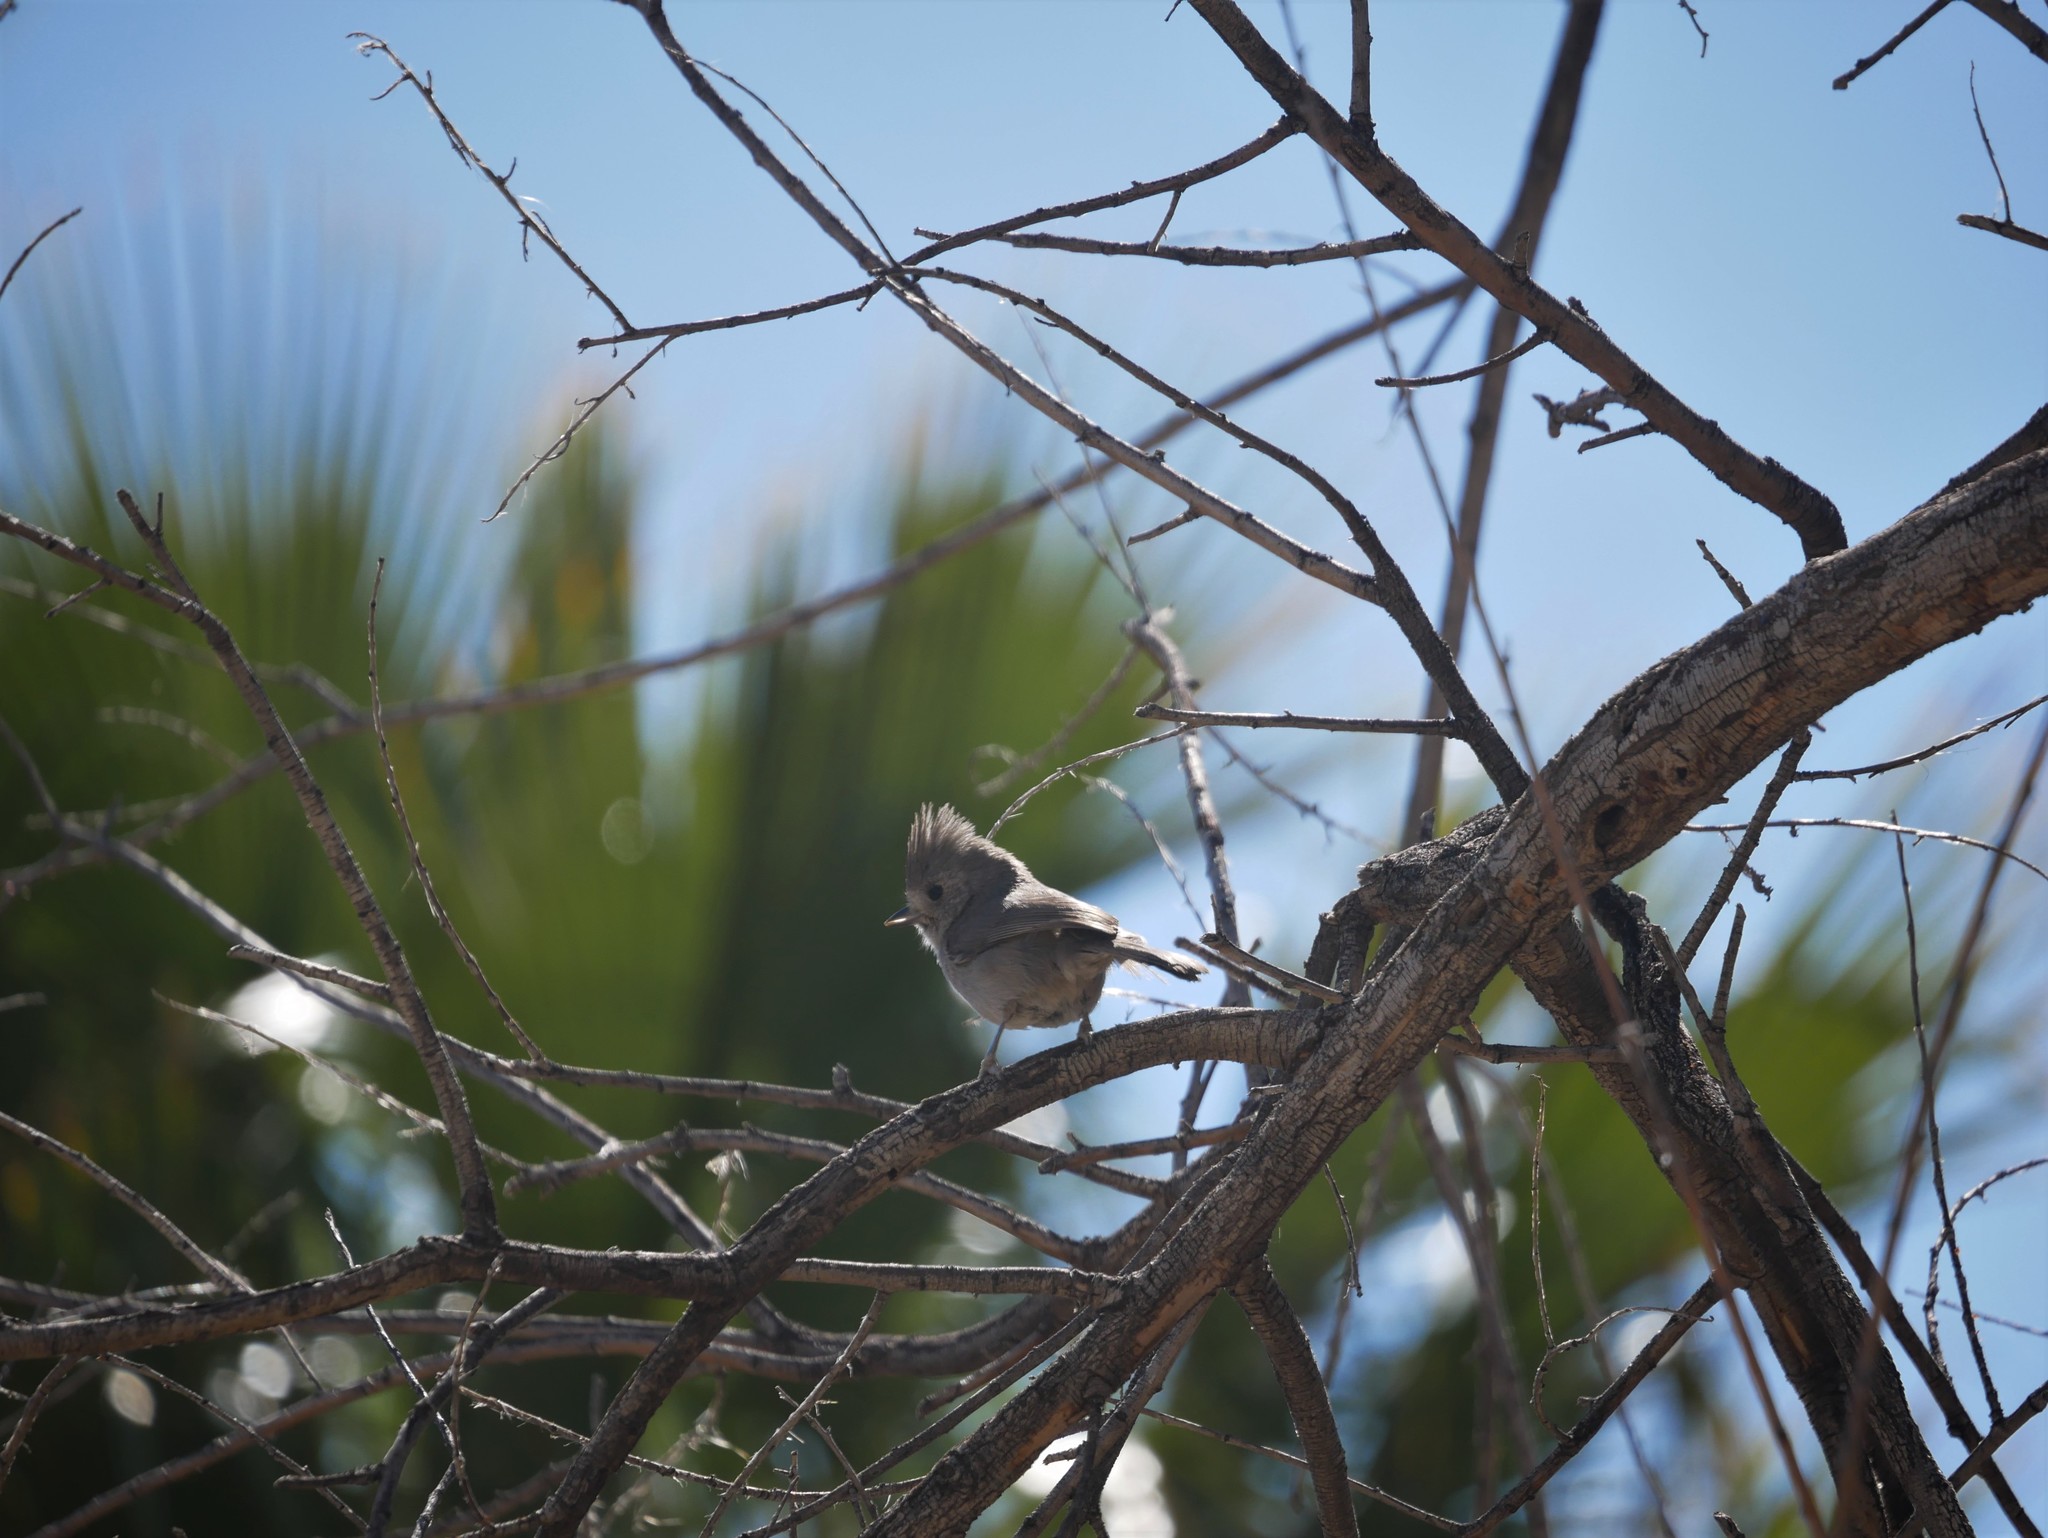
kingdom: Animalia
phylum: Chordata
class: Aves
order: Passeriformes
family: Paridae
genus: Baeolophus
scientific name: Baeolophus inornatus
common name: Oak titmouse
